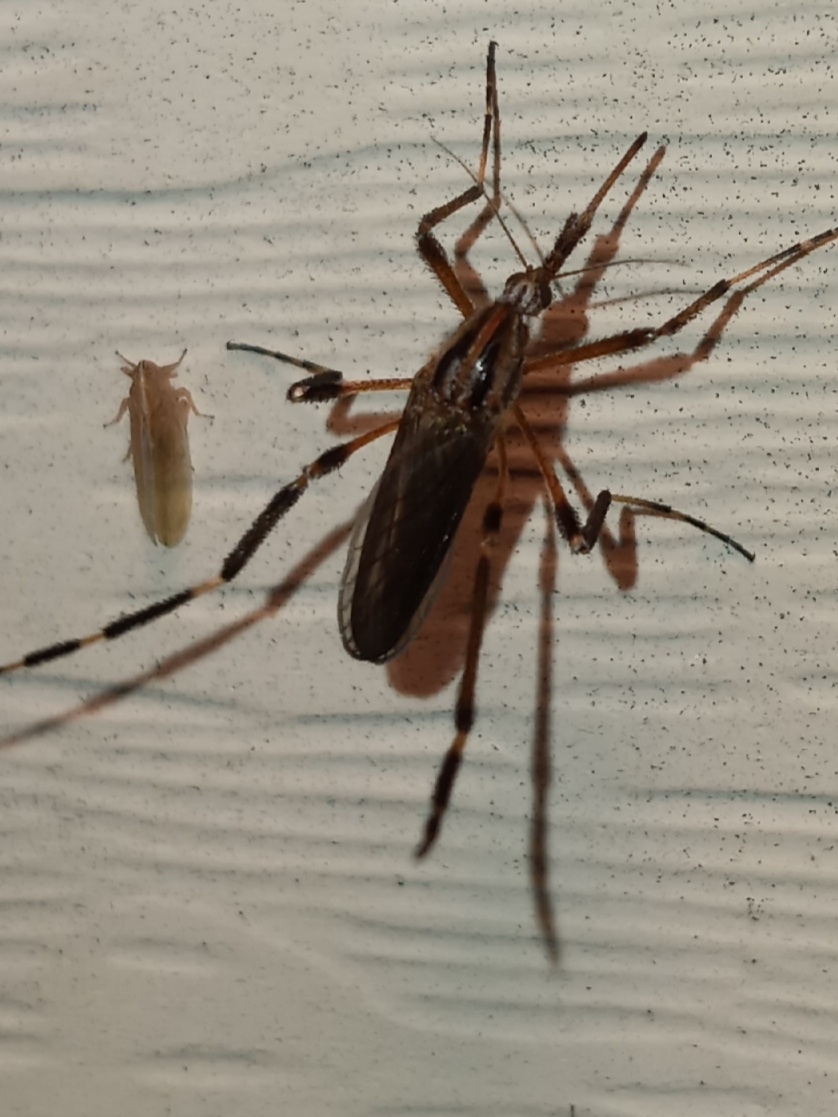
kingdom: Animalia
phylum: Arthropoda
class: Insecta
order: Diptera
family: Culicidae
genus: Psorophora
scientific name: Psorophora ciliata
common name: Gallinipper
